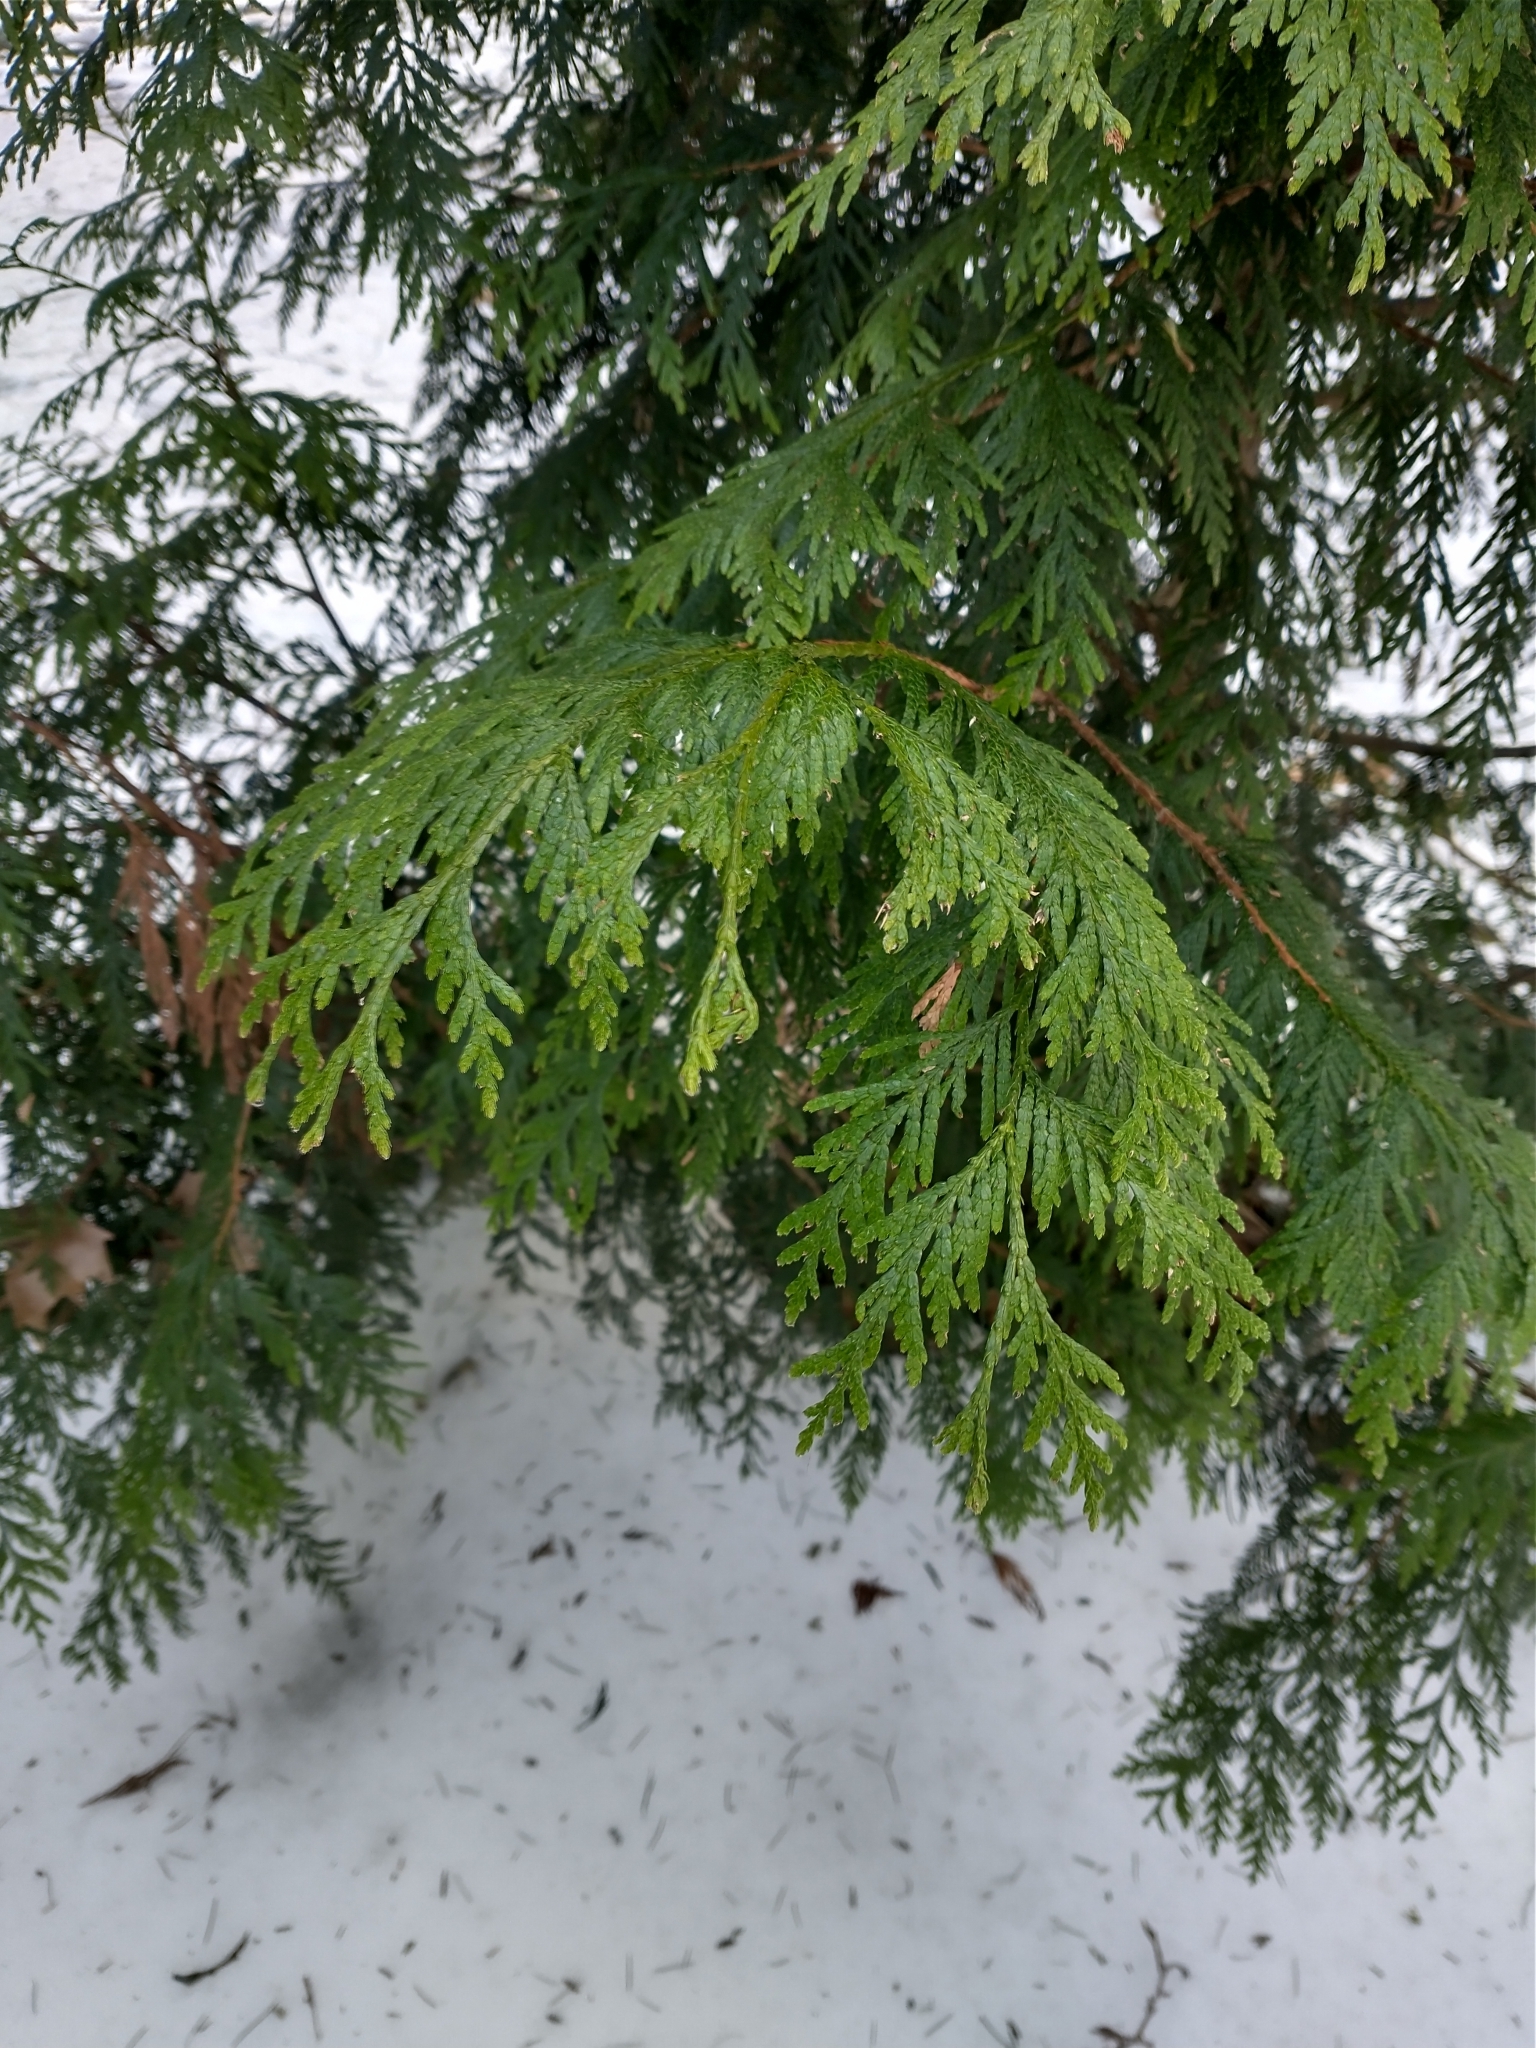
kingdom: Plantae
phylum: Tracheophyta
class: Pinopsida
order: Pinales
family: Cupressaceae
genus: Thuja
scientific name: Thuja plicata
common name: Western red-cedar
